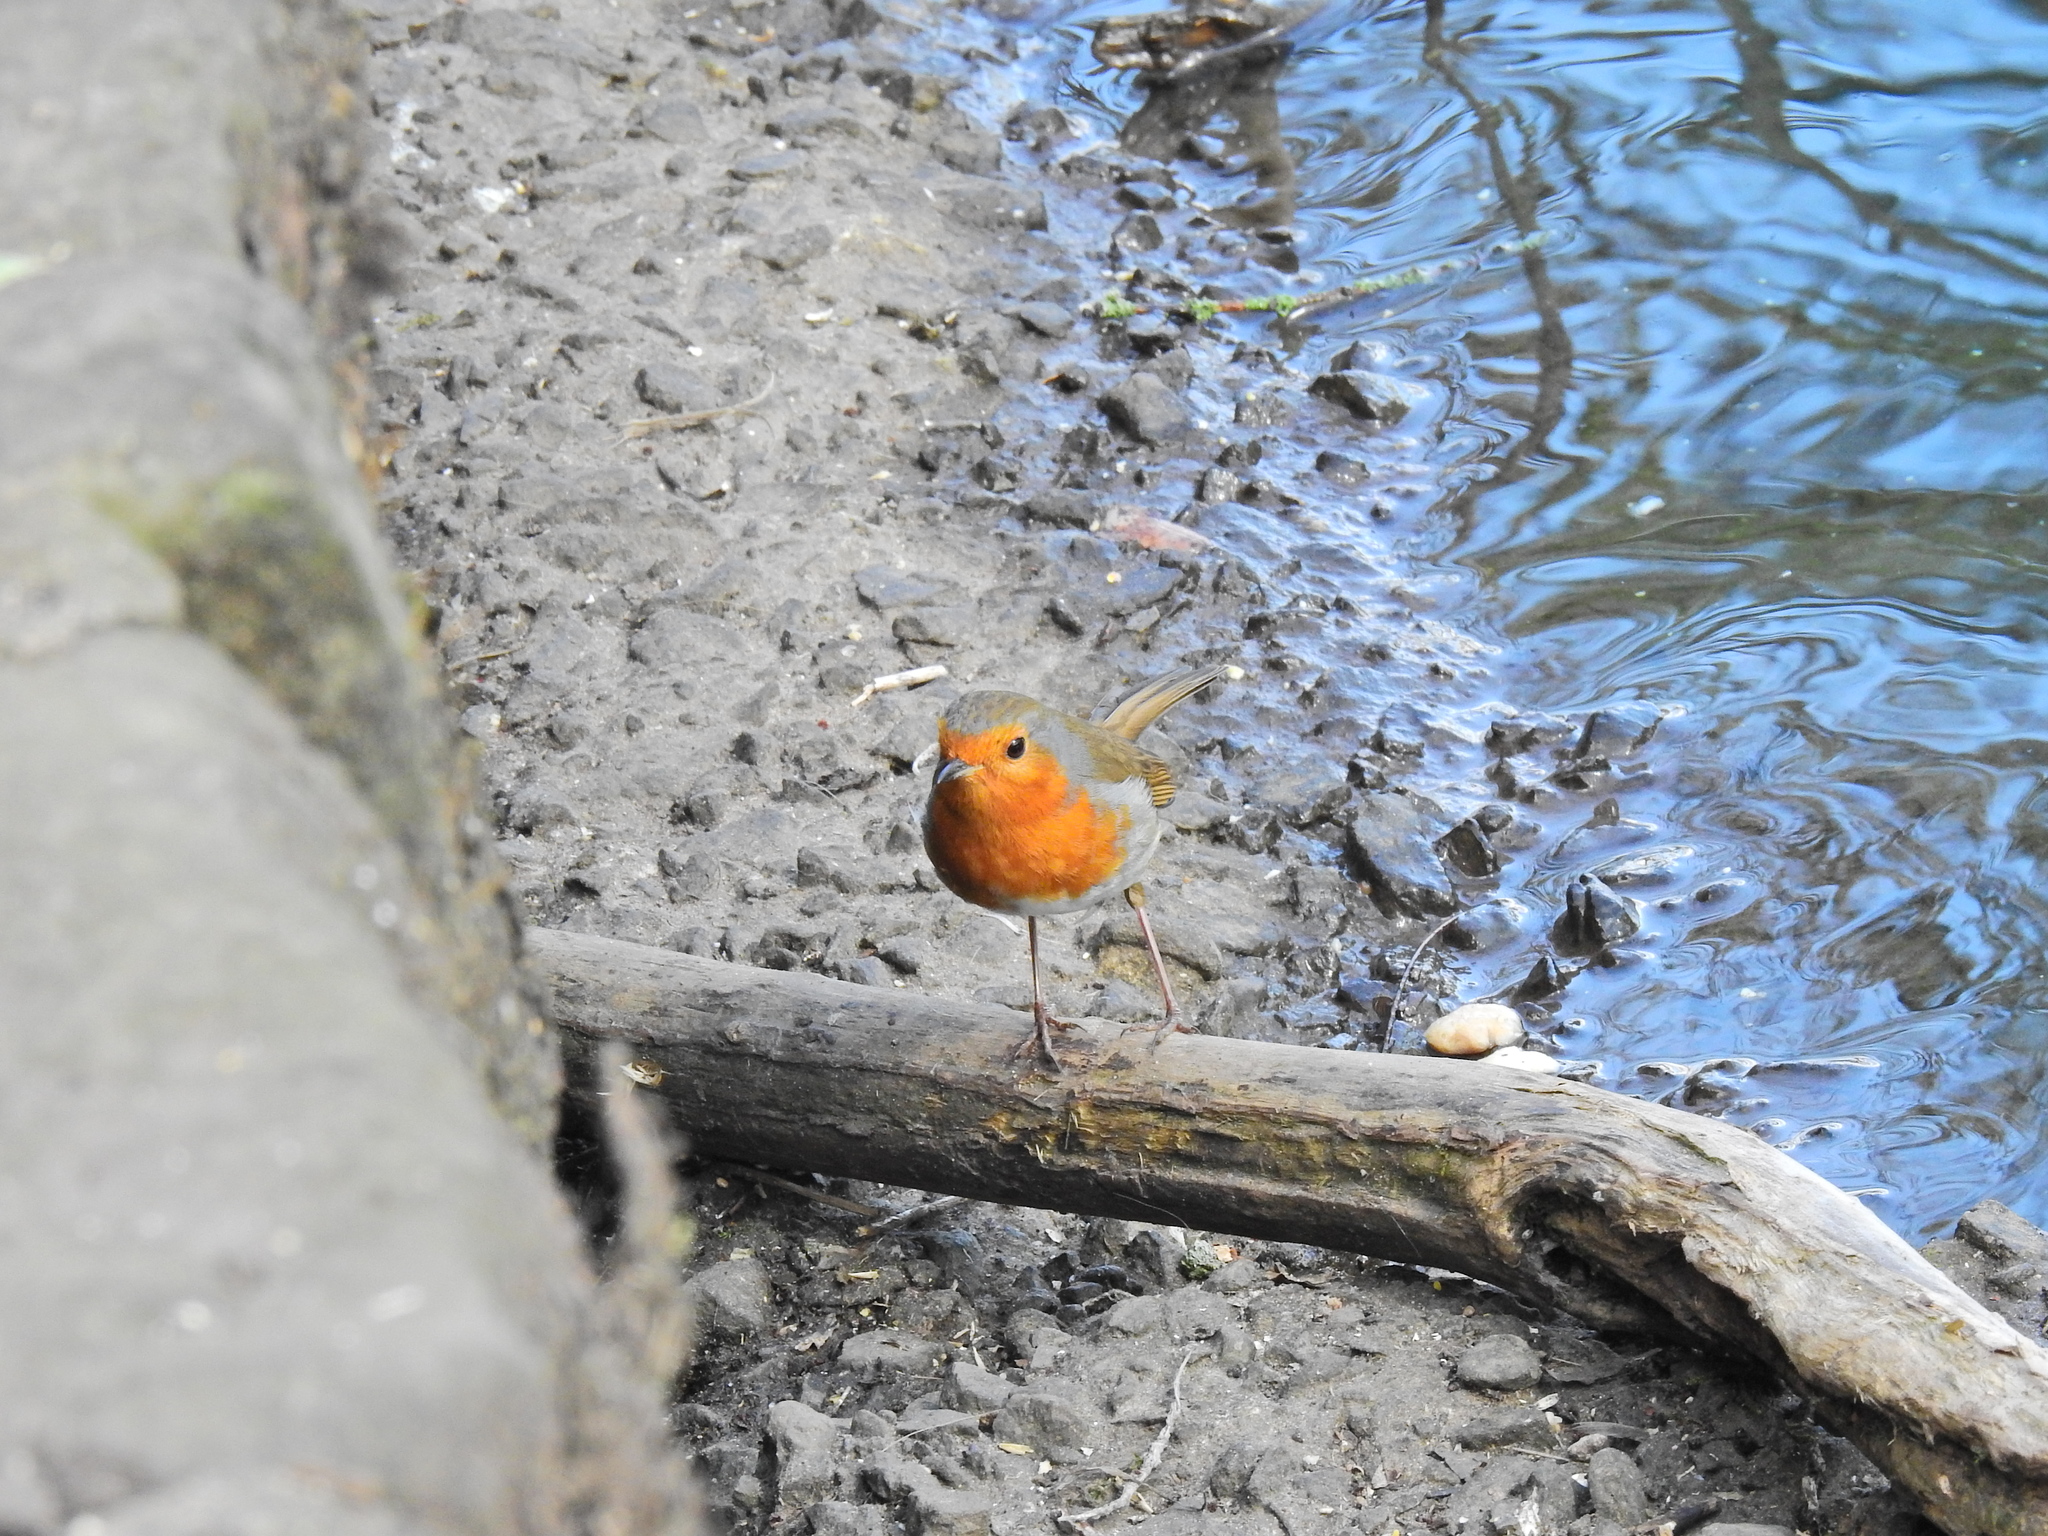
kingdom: Animalia
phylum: Chordata
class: Aves
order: Passeriformes
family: Muscicapidae
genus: Erithacus
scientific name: Erithacus rubecula
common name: European robin
